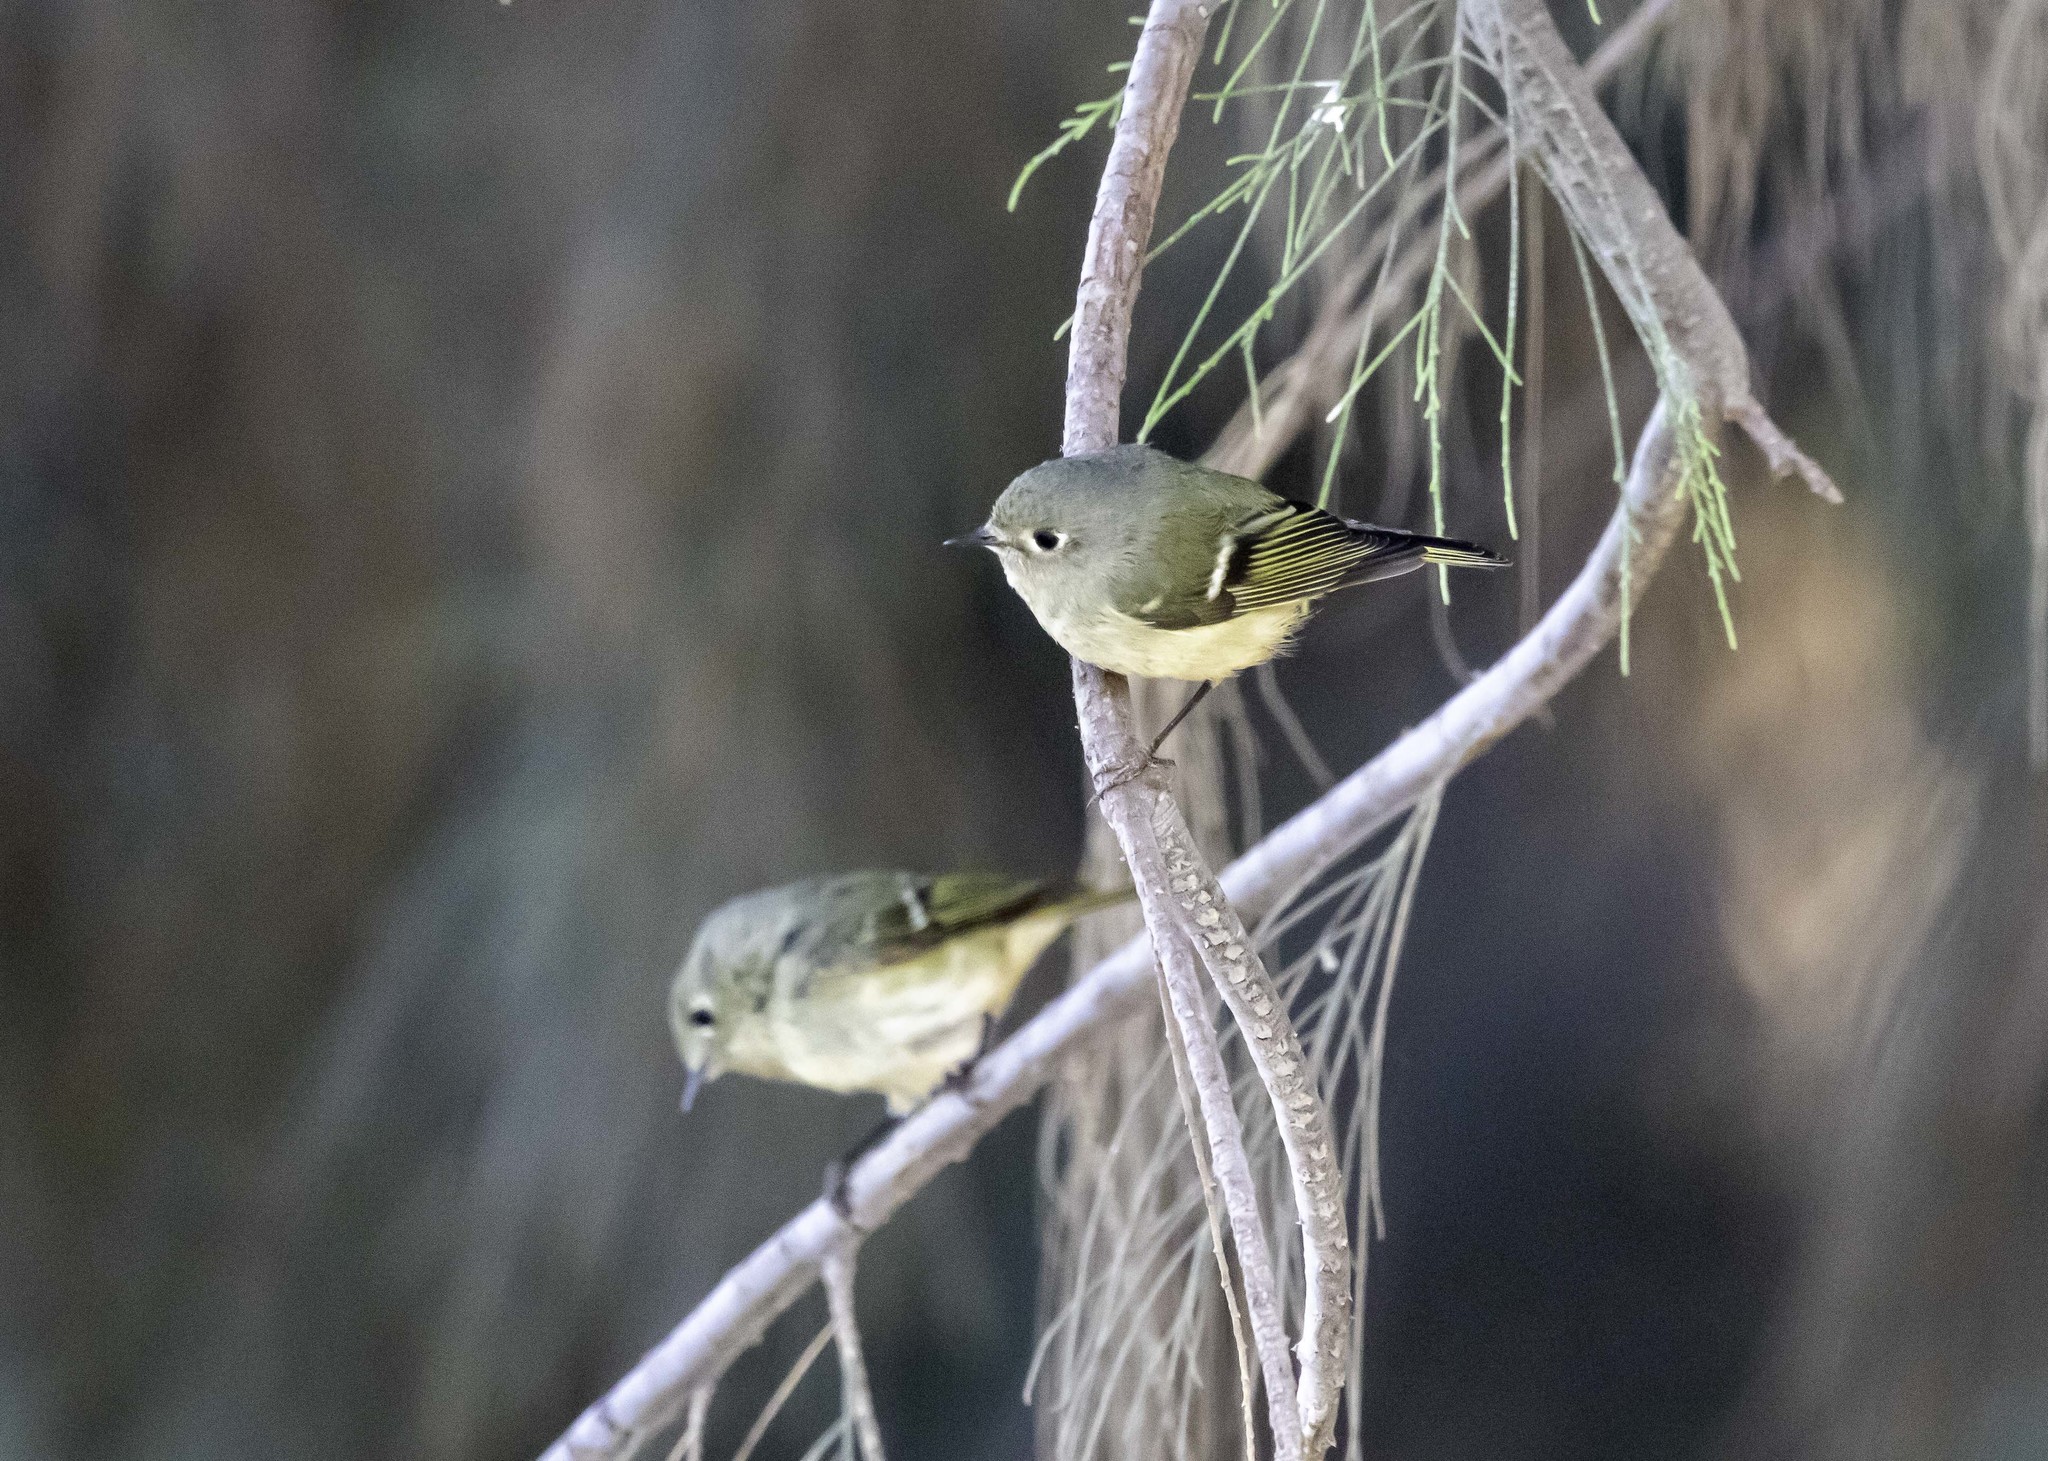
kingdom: Animalia
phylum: Chordata
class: Aves
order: Passeriformes
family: Regulidae
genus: Regulus
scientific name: Regulus calendula
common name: Ruby-crowned kinglet
